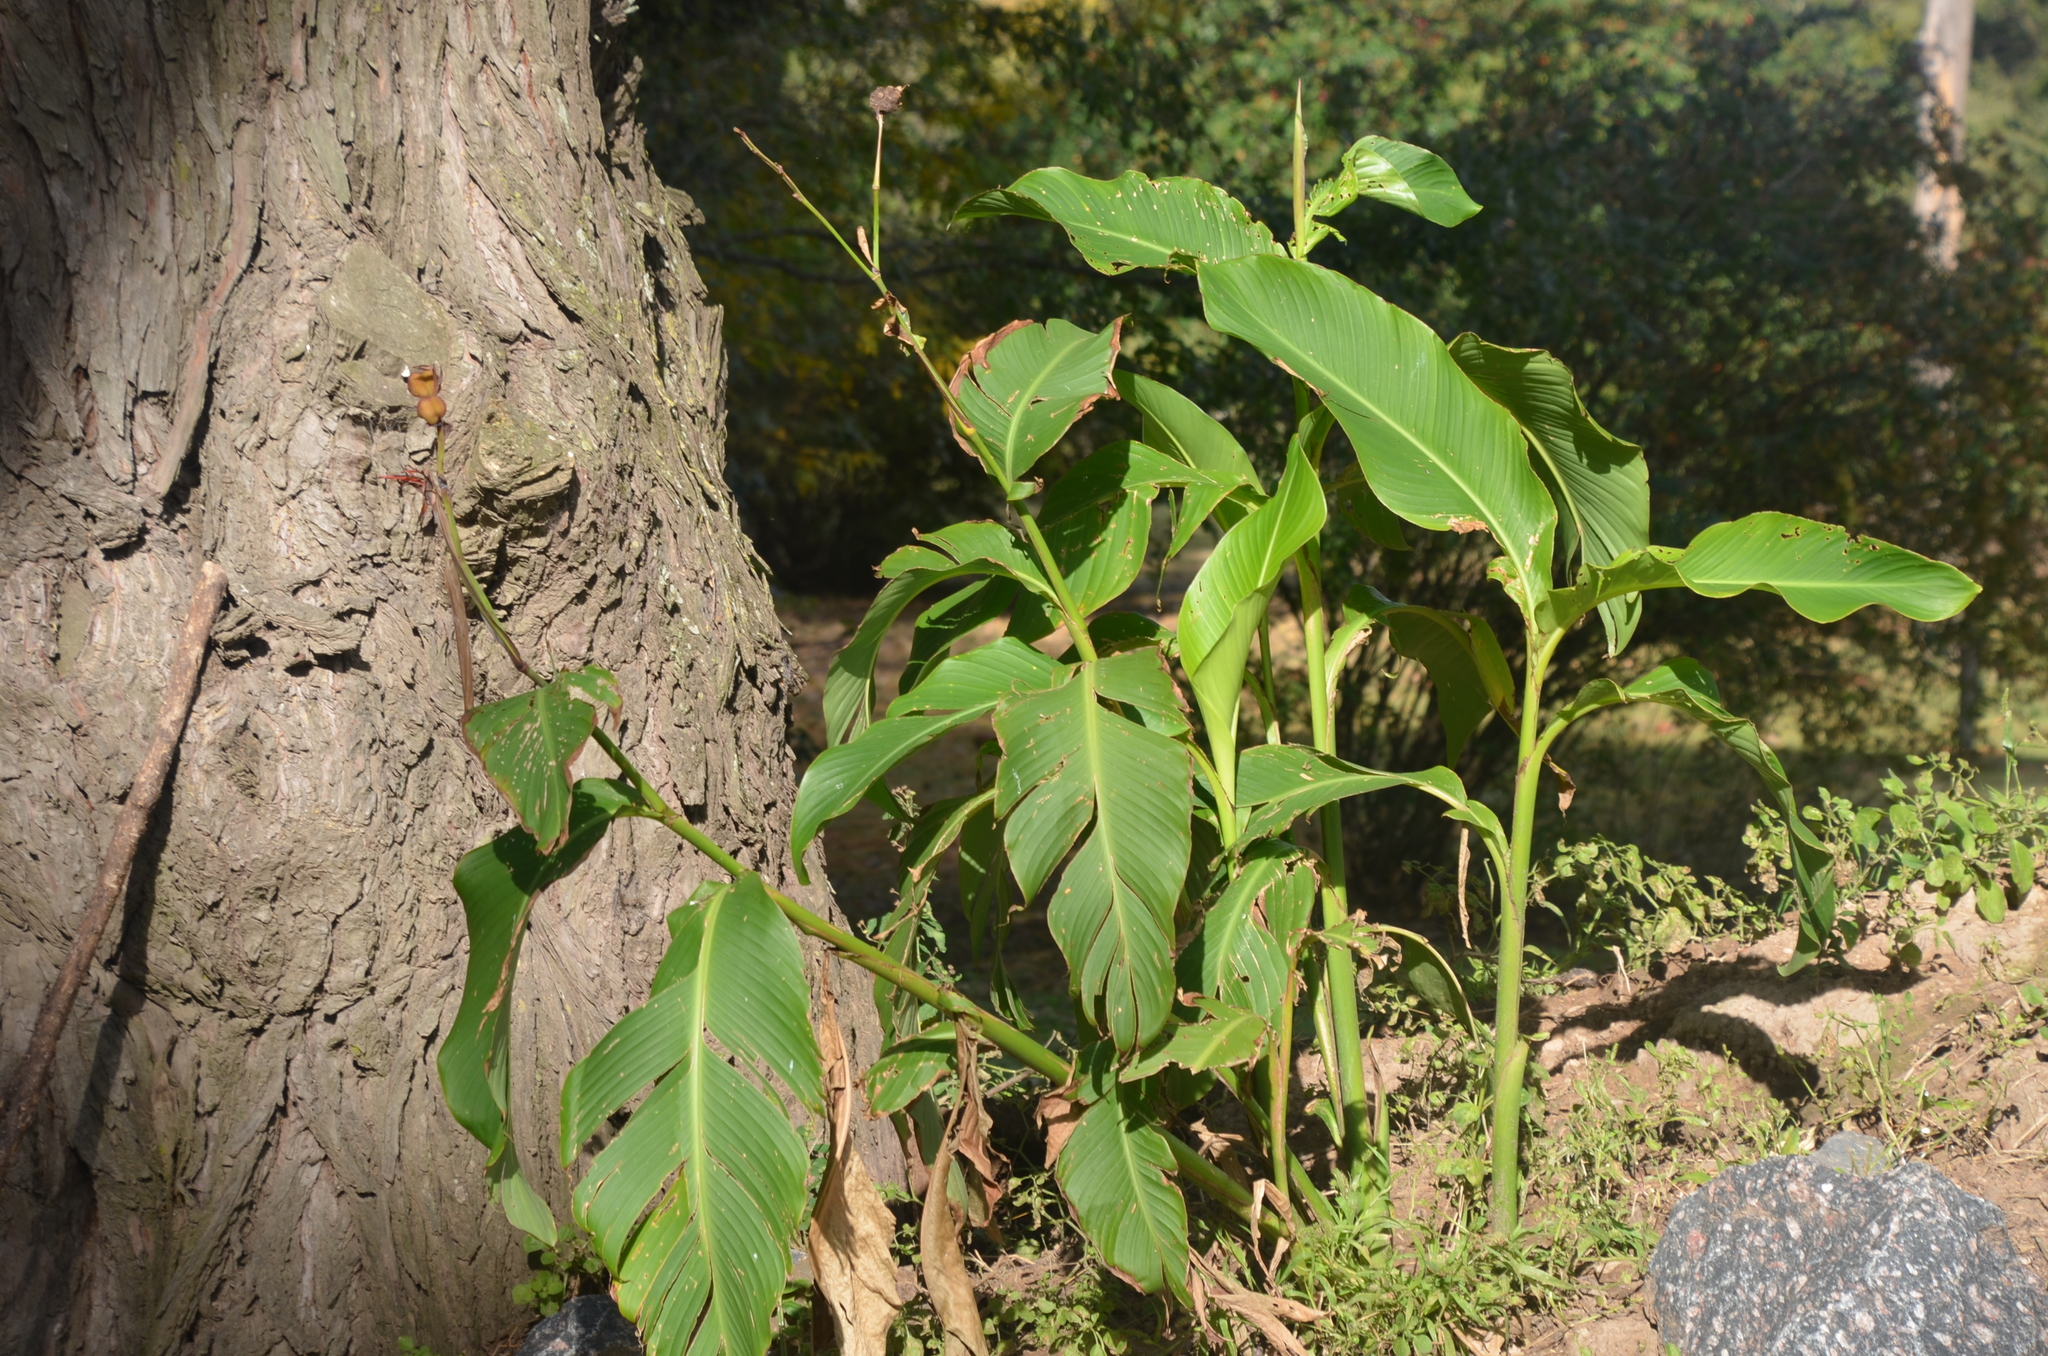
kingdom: Plantae
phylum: Tracheophyta
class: Liliopsida
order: Zingiberales
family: Cannaceae
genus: Canna
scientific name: Canna indica
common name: Indian shot
